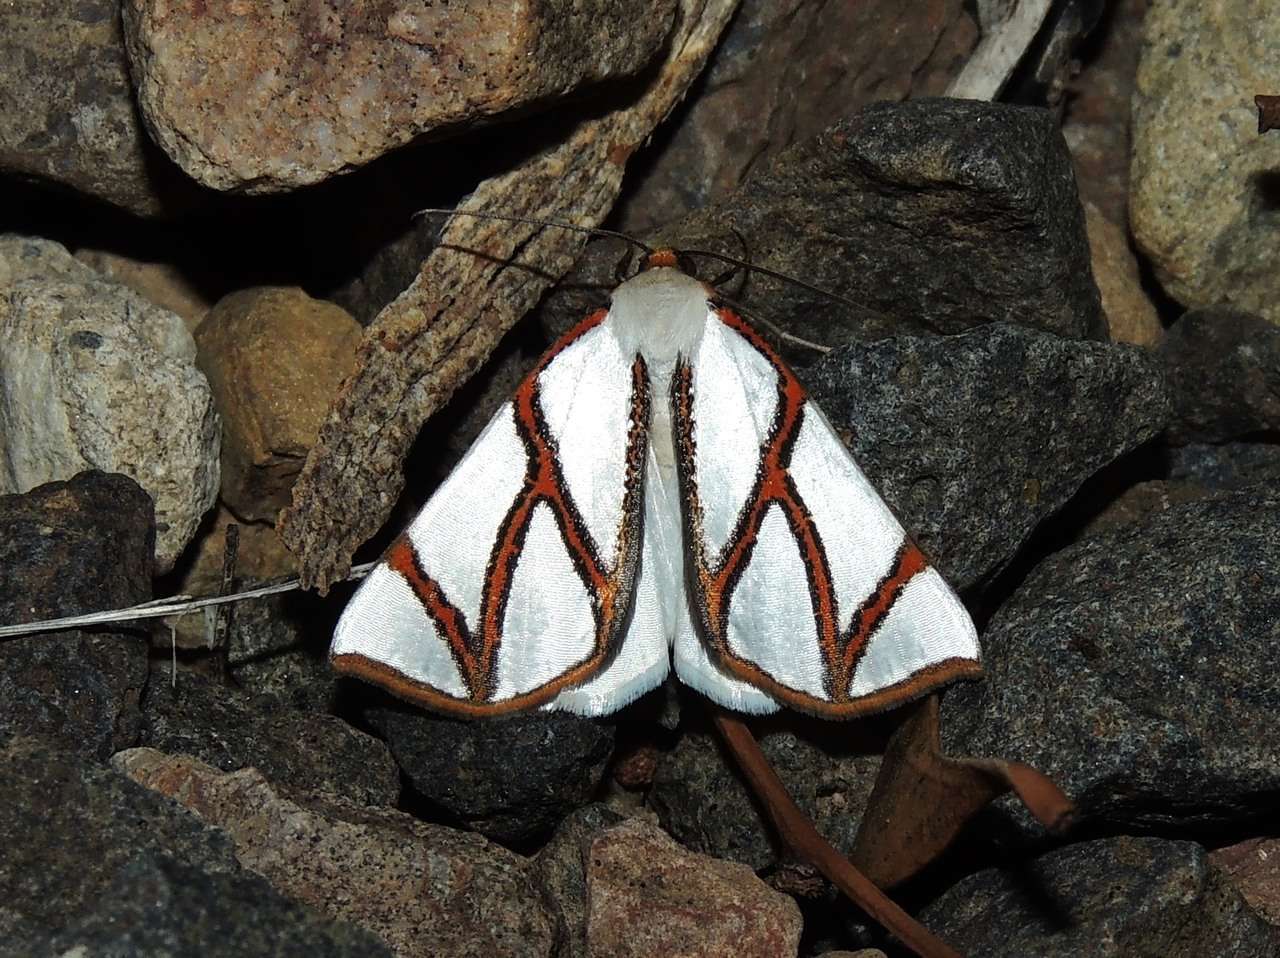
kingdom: Animalia
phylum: Arthropoda
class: Insecta
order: Lepidoptera
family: Geometridae
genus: Thalaina
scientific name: Thalaina clara
